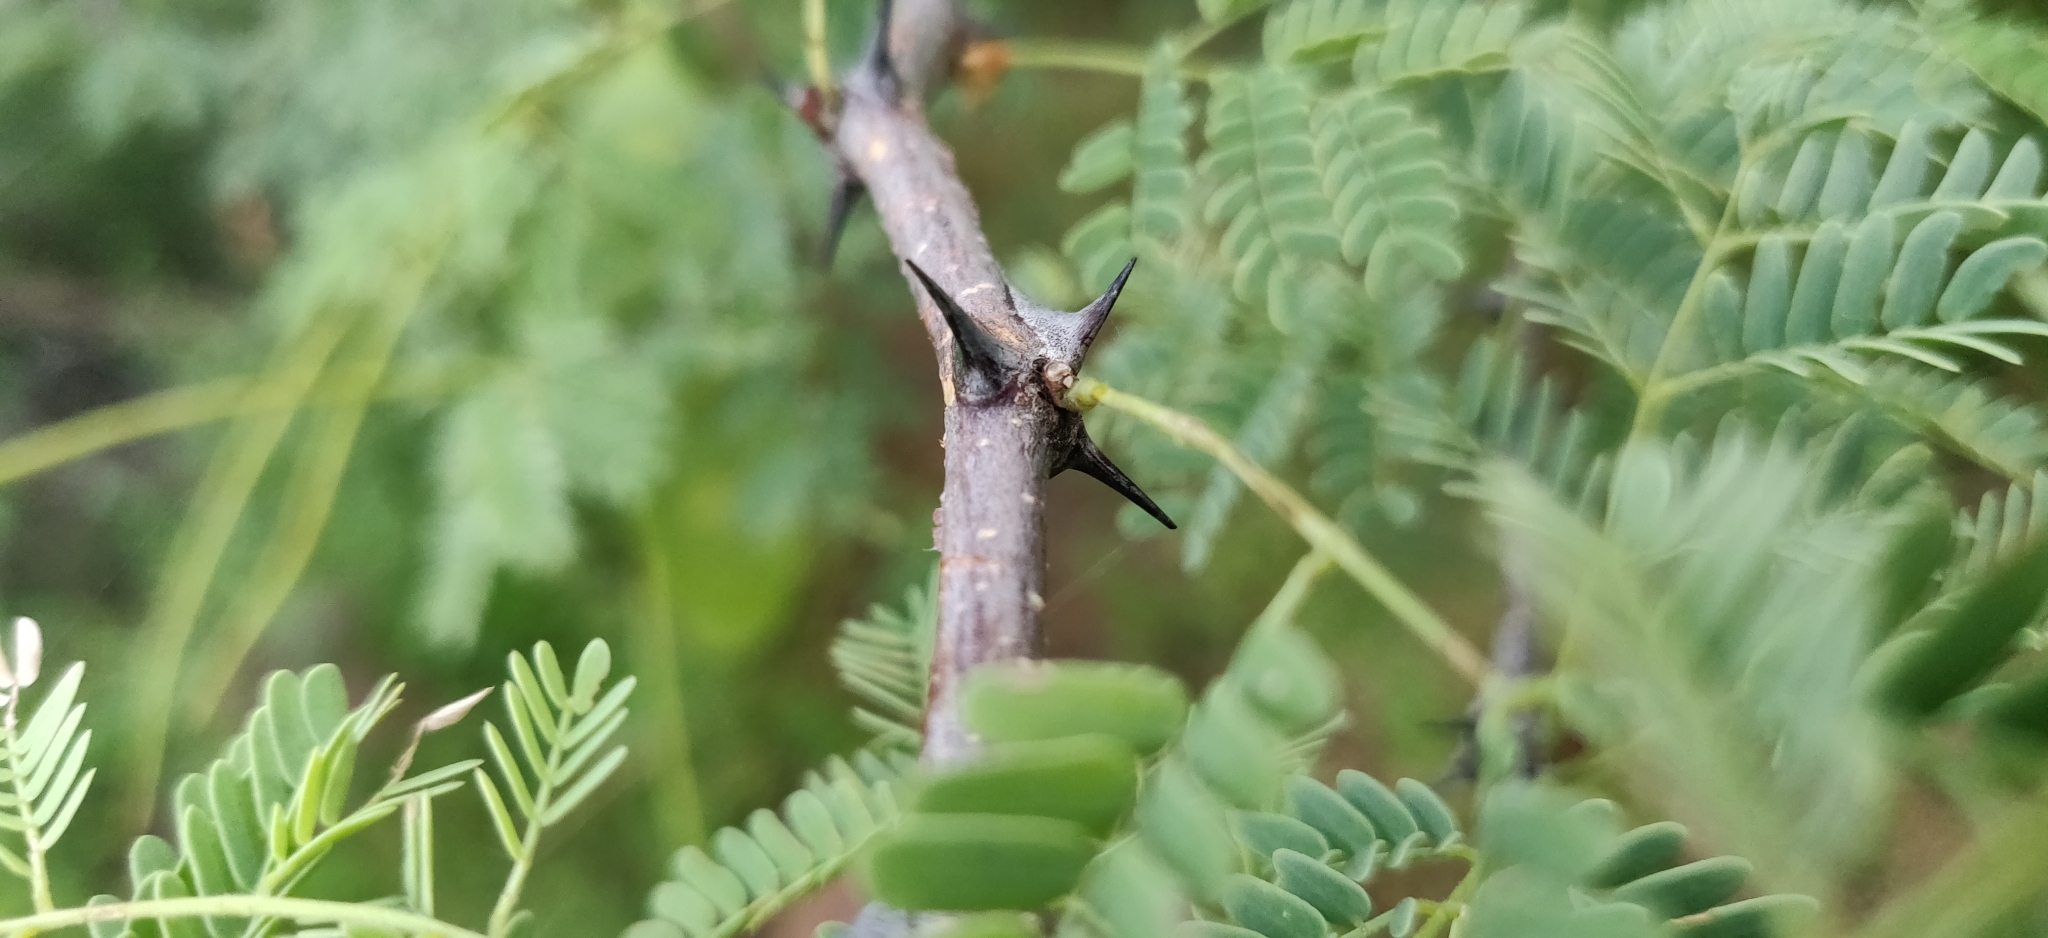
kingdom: Plantae
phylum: Tracheophyta
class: Magnoliopsida
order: Fabales
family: Fabaceae
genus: Senegalia
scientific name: Senegalia senegal
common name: Senegal-gum
